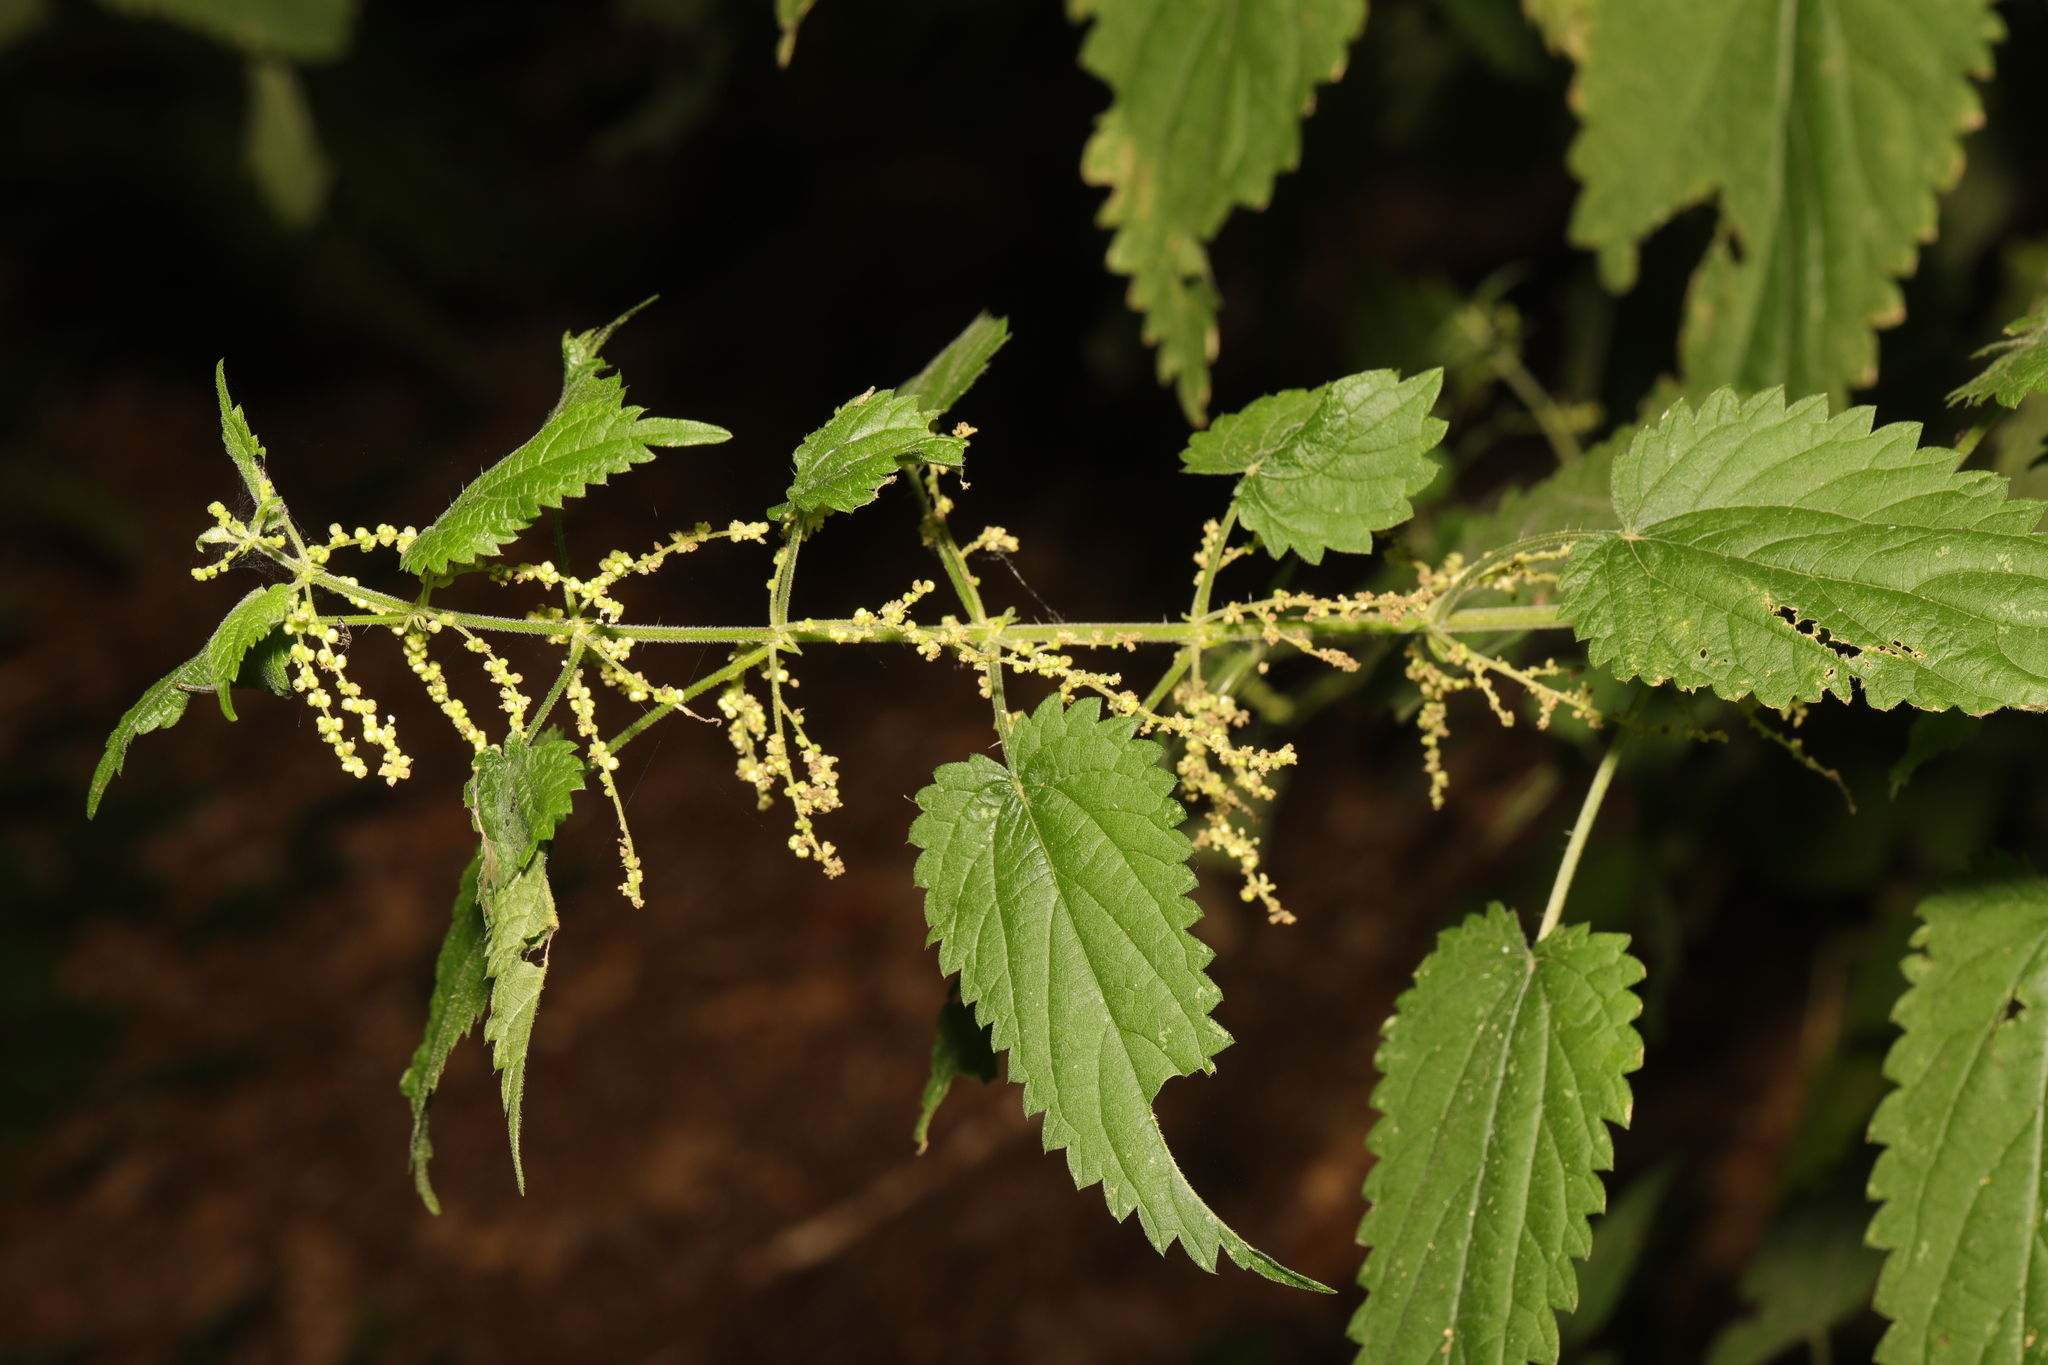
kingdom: Plantae
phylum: Tracheophyta
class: Magnoliopsida
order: Rosales
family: Urticaceae
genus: Urtica
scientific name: Urtica dioica
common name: Common nettle
